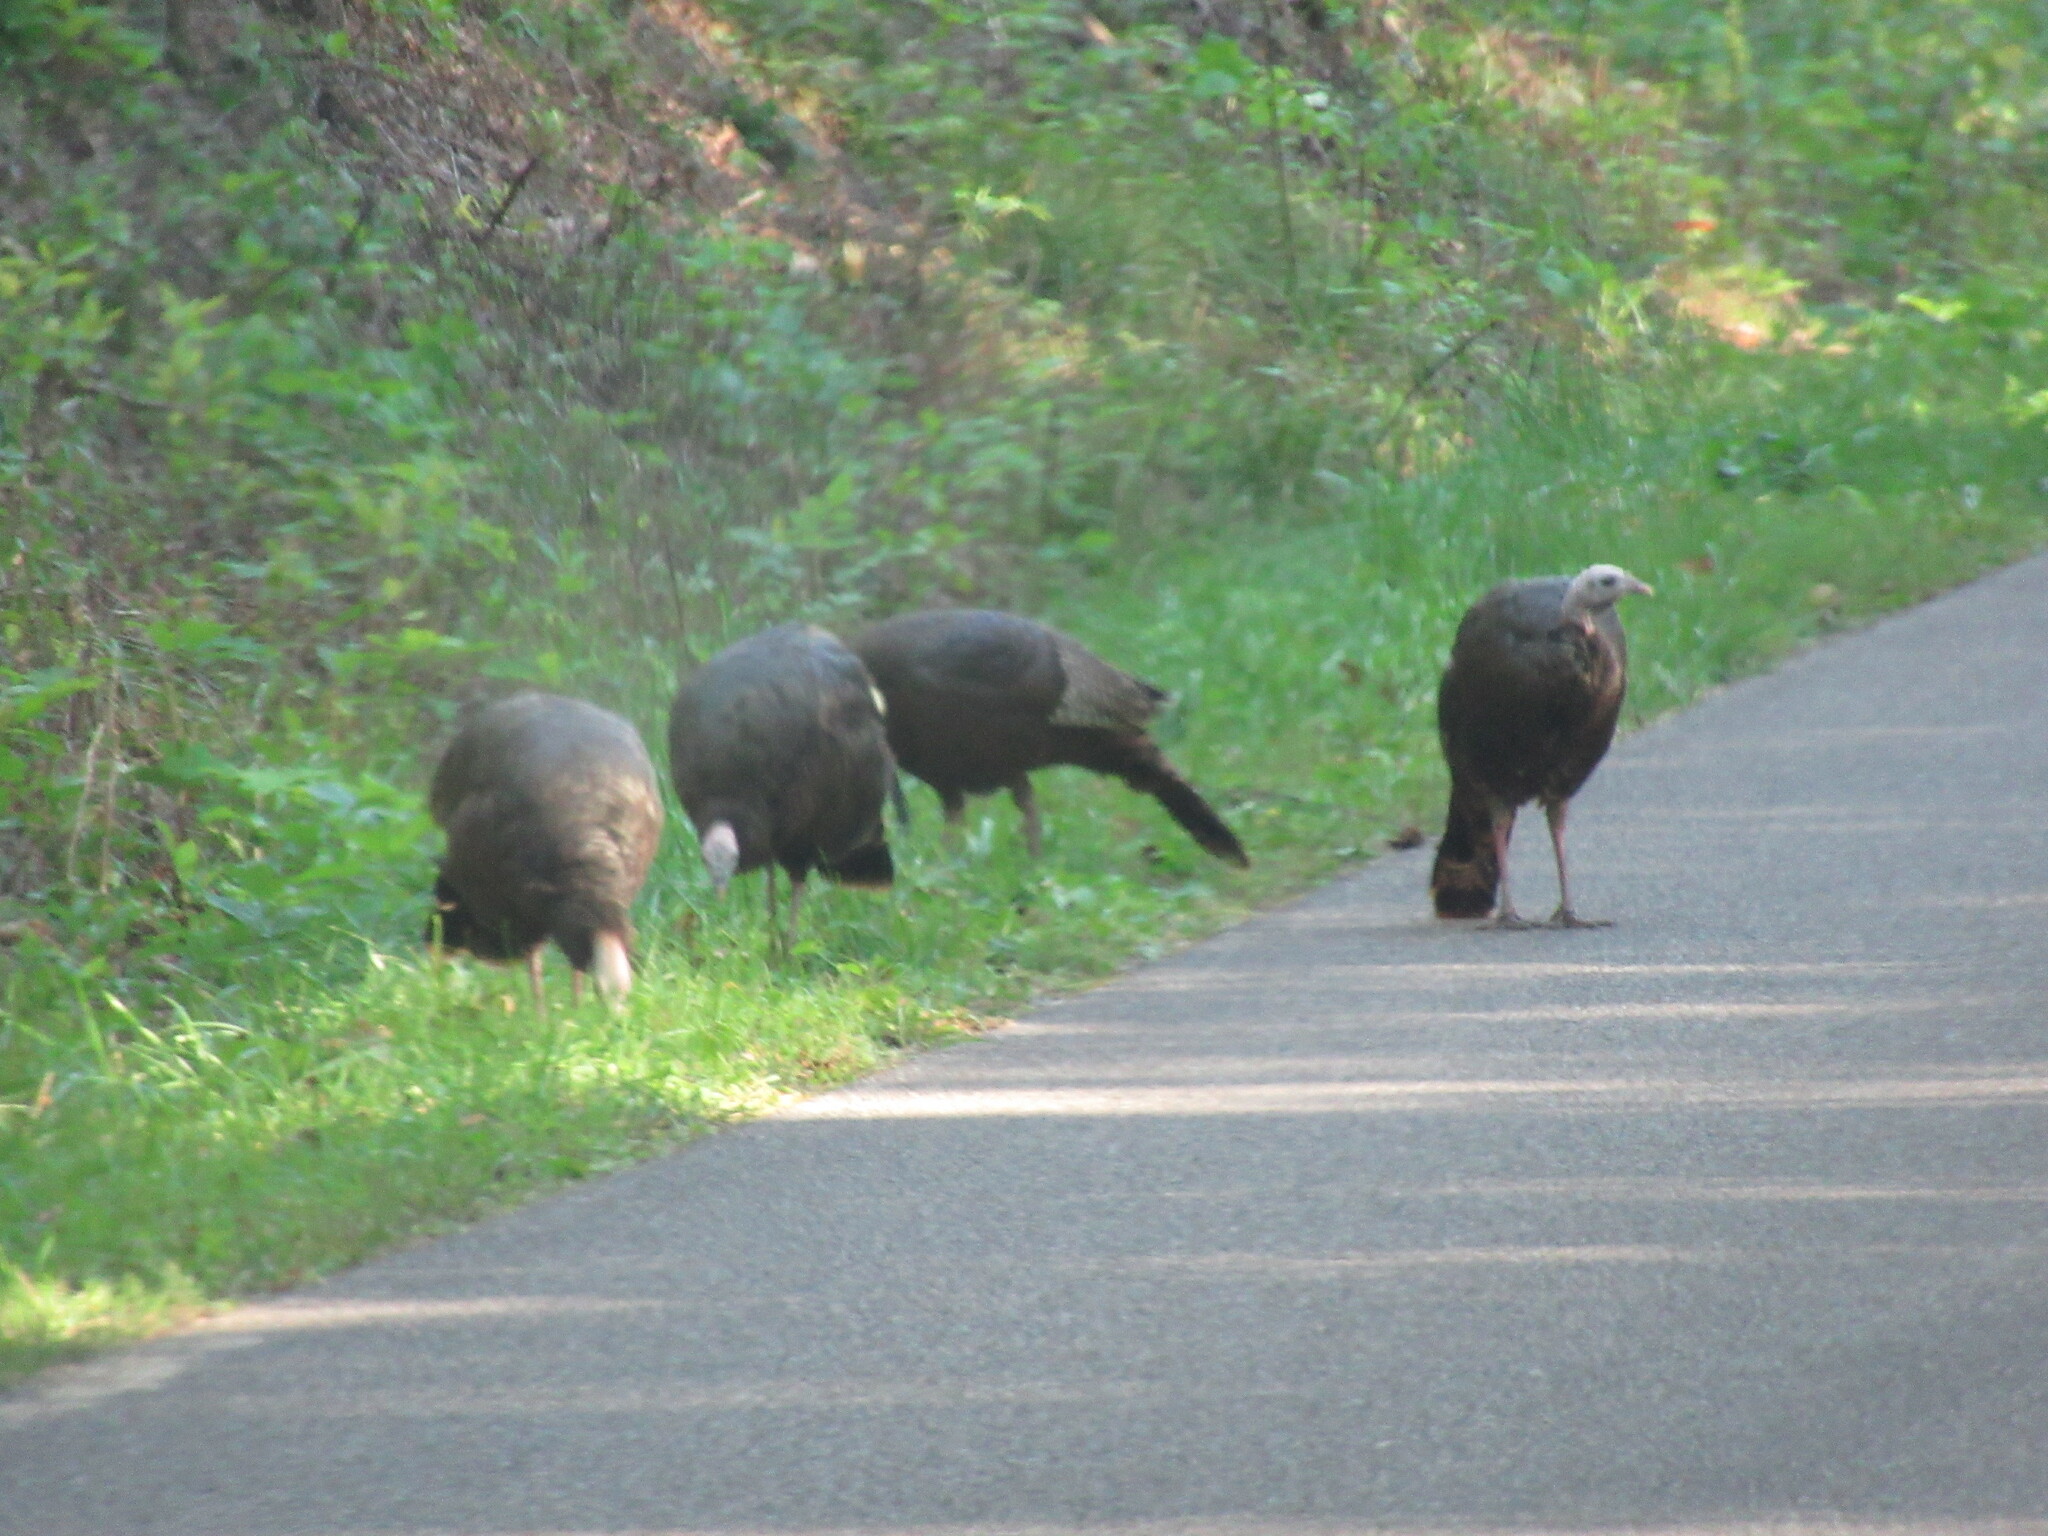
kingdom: Animalia
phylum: Chordata
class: Aves
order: Galliformes
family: Phasianidae
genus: Meleagris
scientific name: Meleagris gallopavo
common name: Wild turkey
